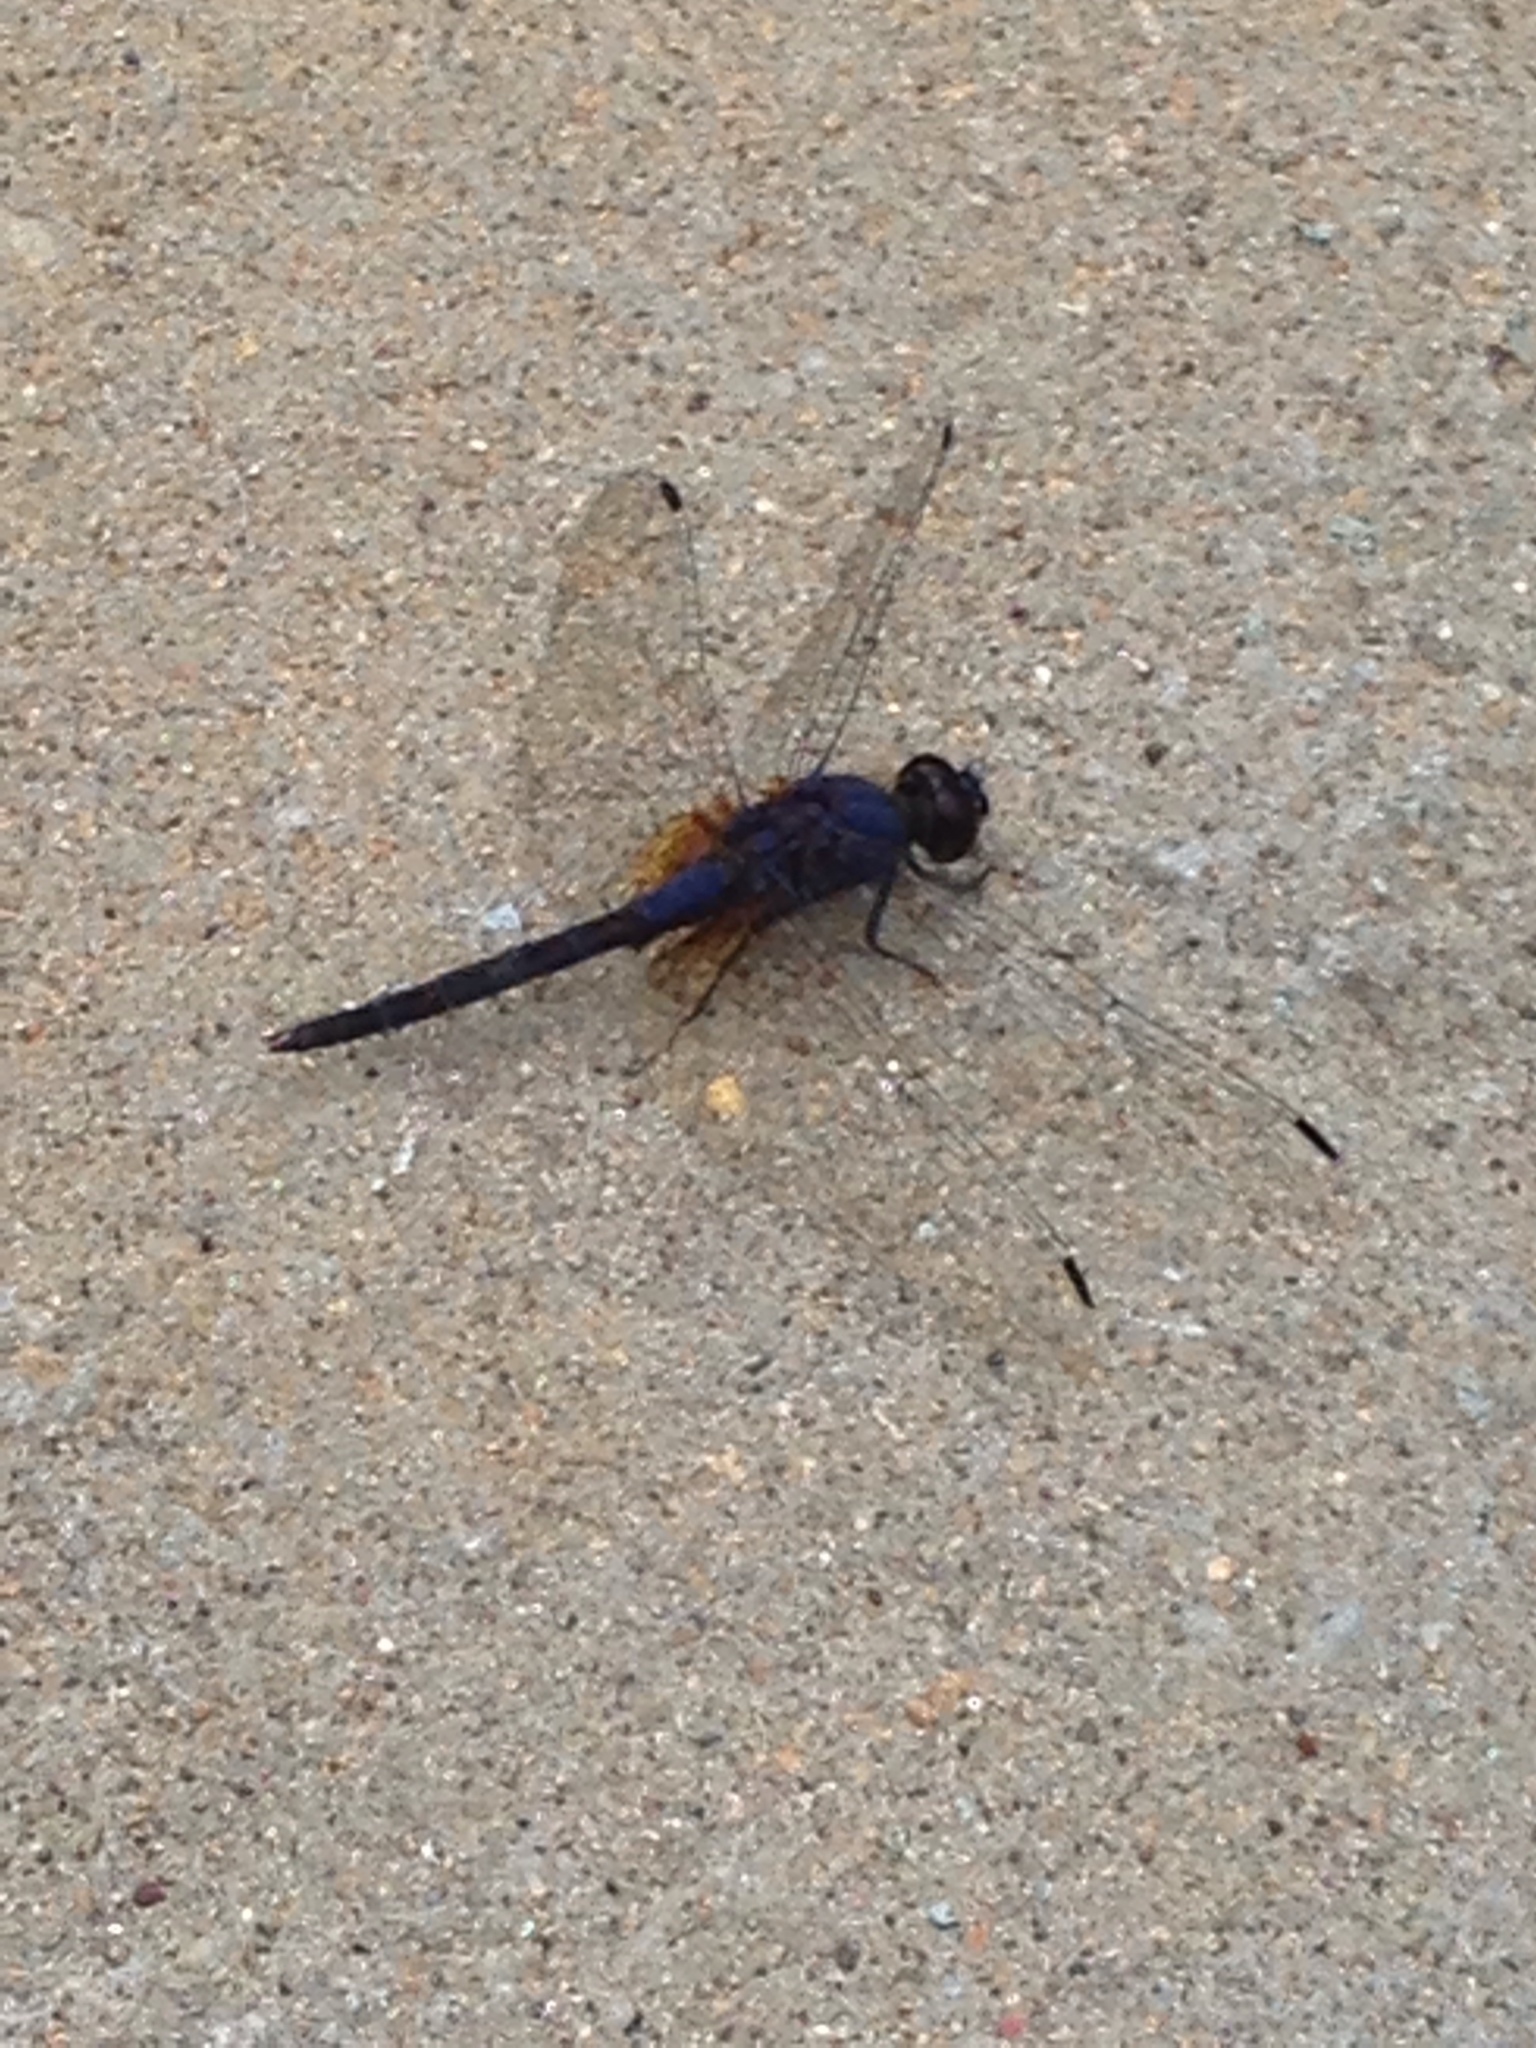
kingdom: Animalia
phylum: Arthropoda
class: Insecta
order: Odonata
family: Libellulidae
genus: Trithemis
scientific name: Trithemis festiva
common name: Indigo dropwing
